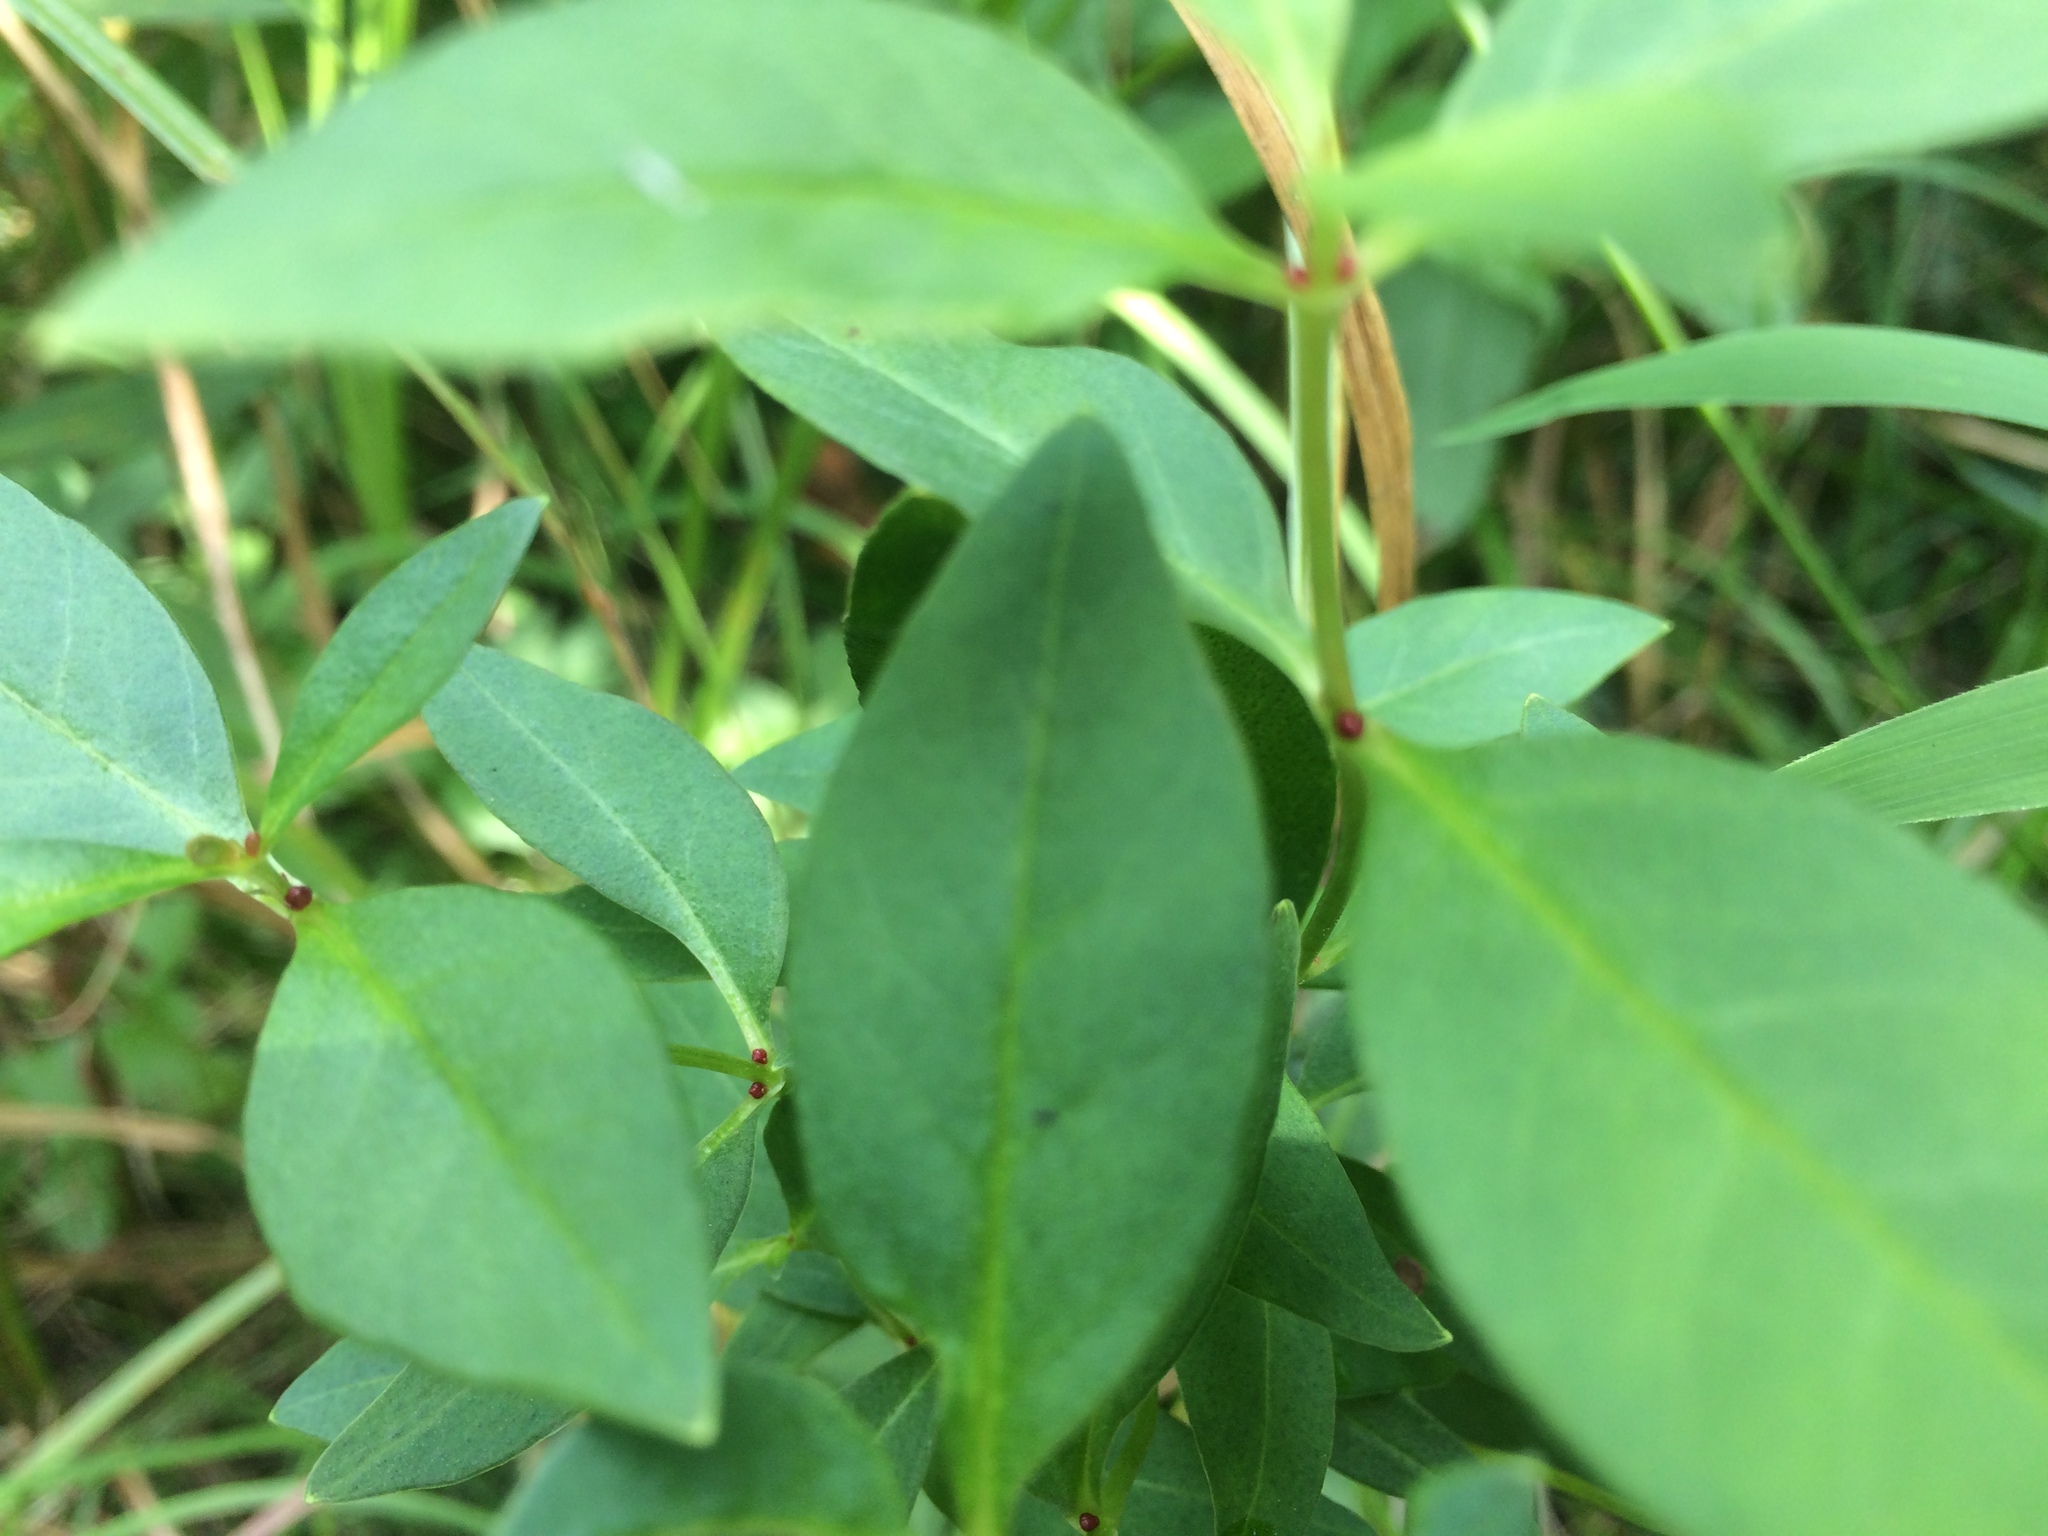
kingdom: Plantae
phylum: Tracheophyta
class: Magnoliopsida
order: Ericales
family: Primulaceae
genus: Lysimachia
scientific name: Lysimachia terrestris
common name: Lake loosestrife
